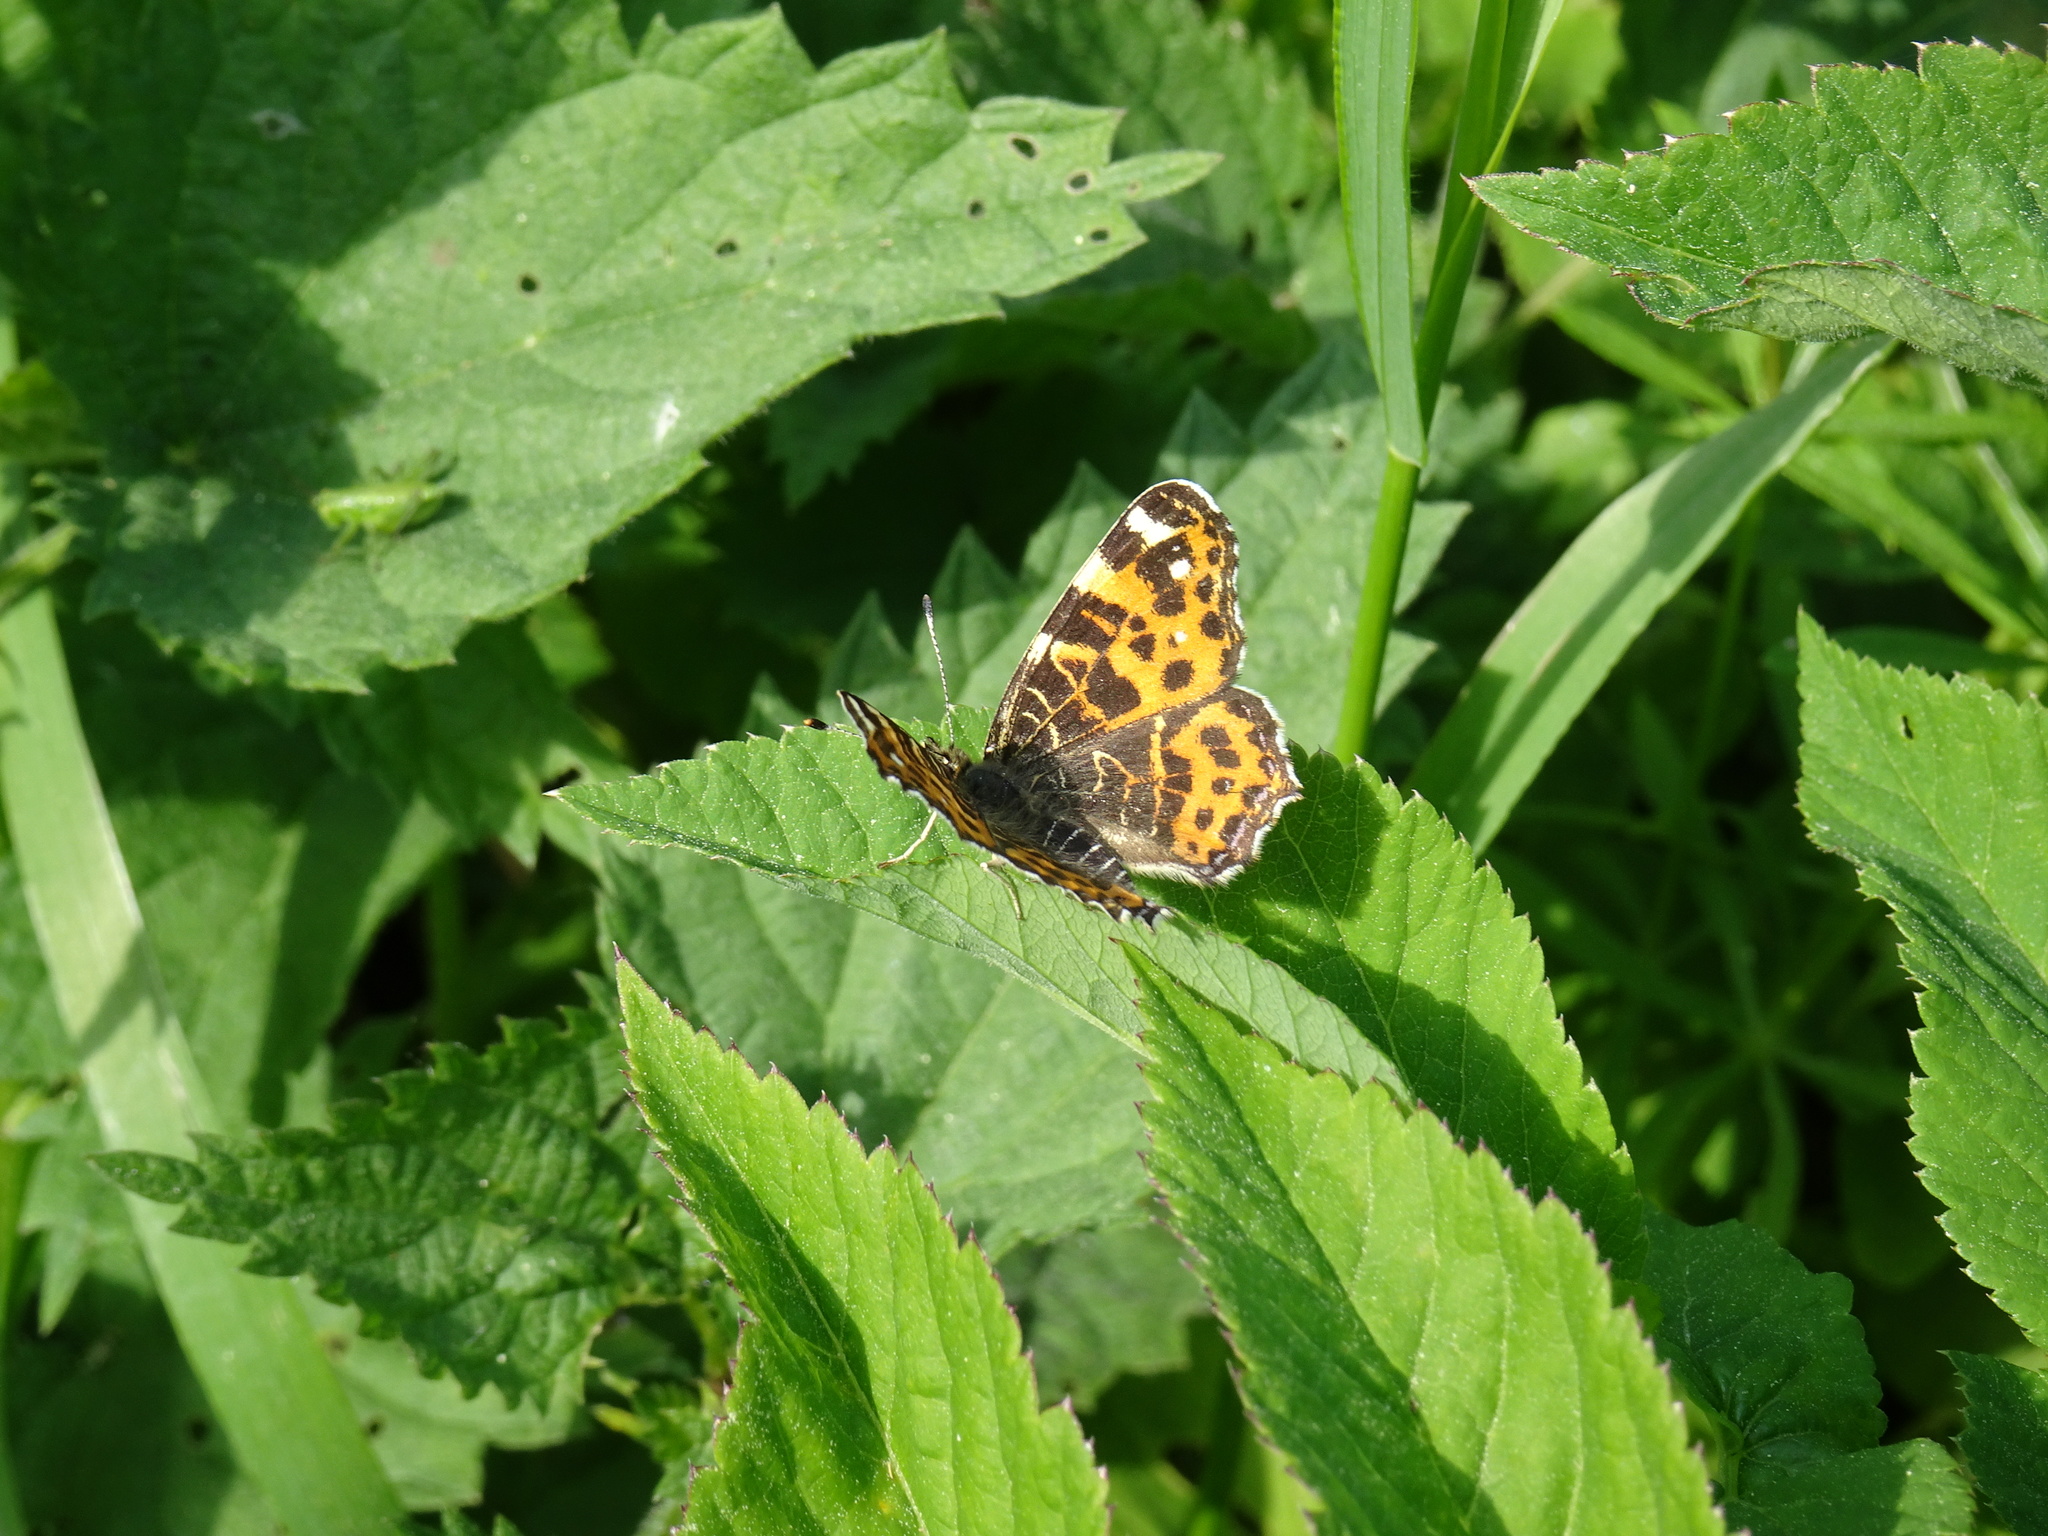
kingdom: Animalia
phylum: Arthropoda
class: Insecta
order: Lepidoptera
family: Nymphalidae
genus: Araschnia
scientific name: Araschnia levana
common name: Map butterfly
